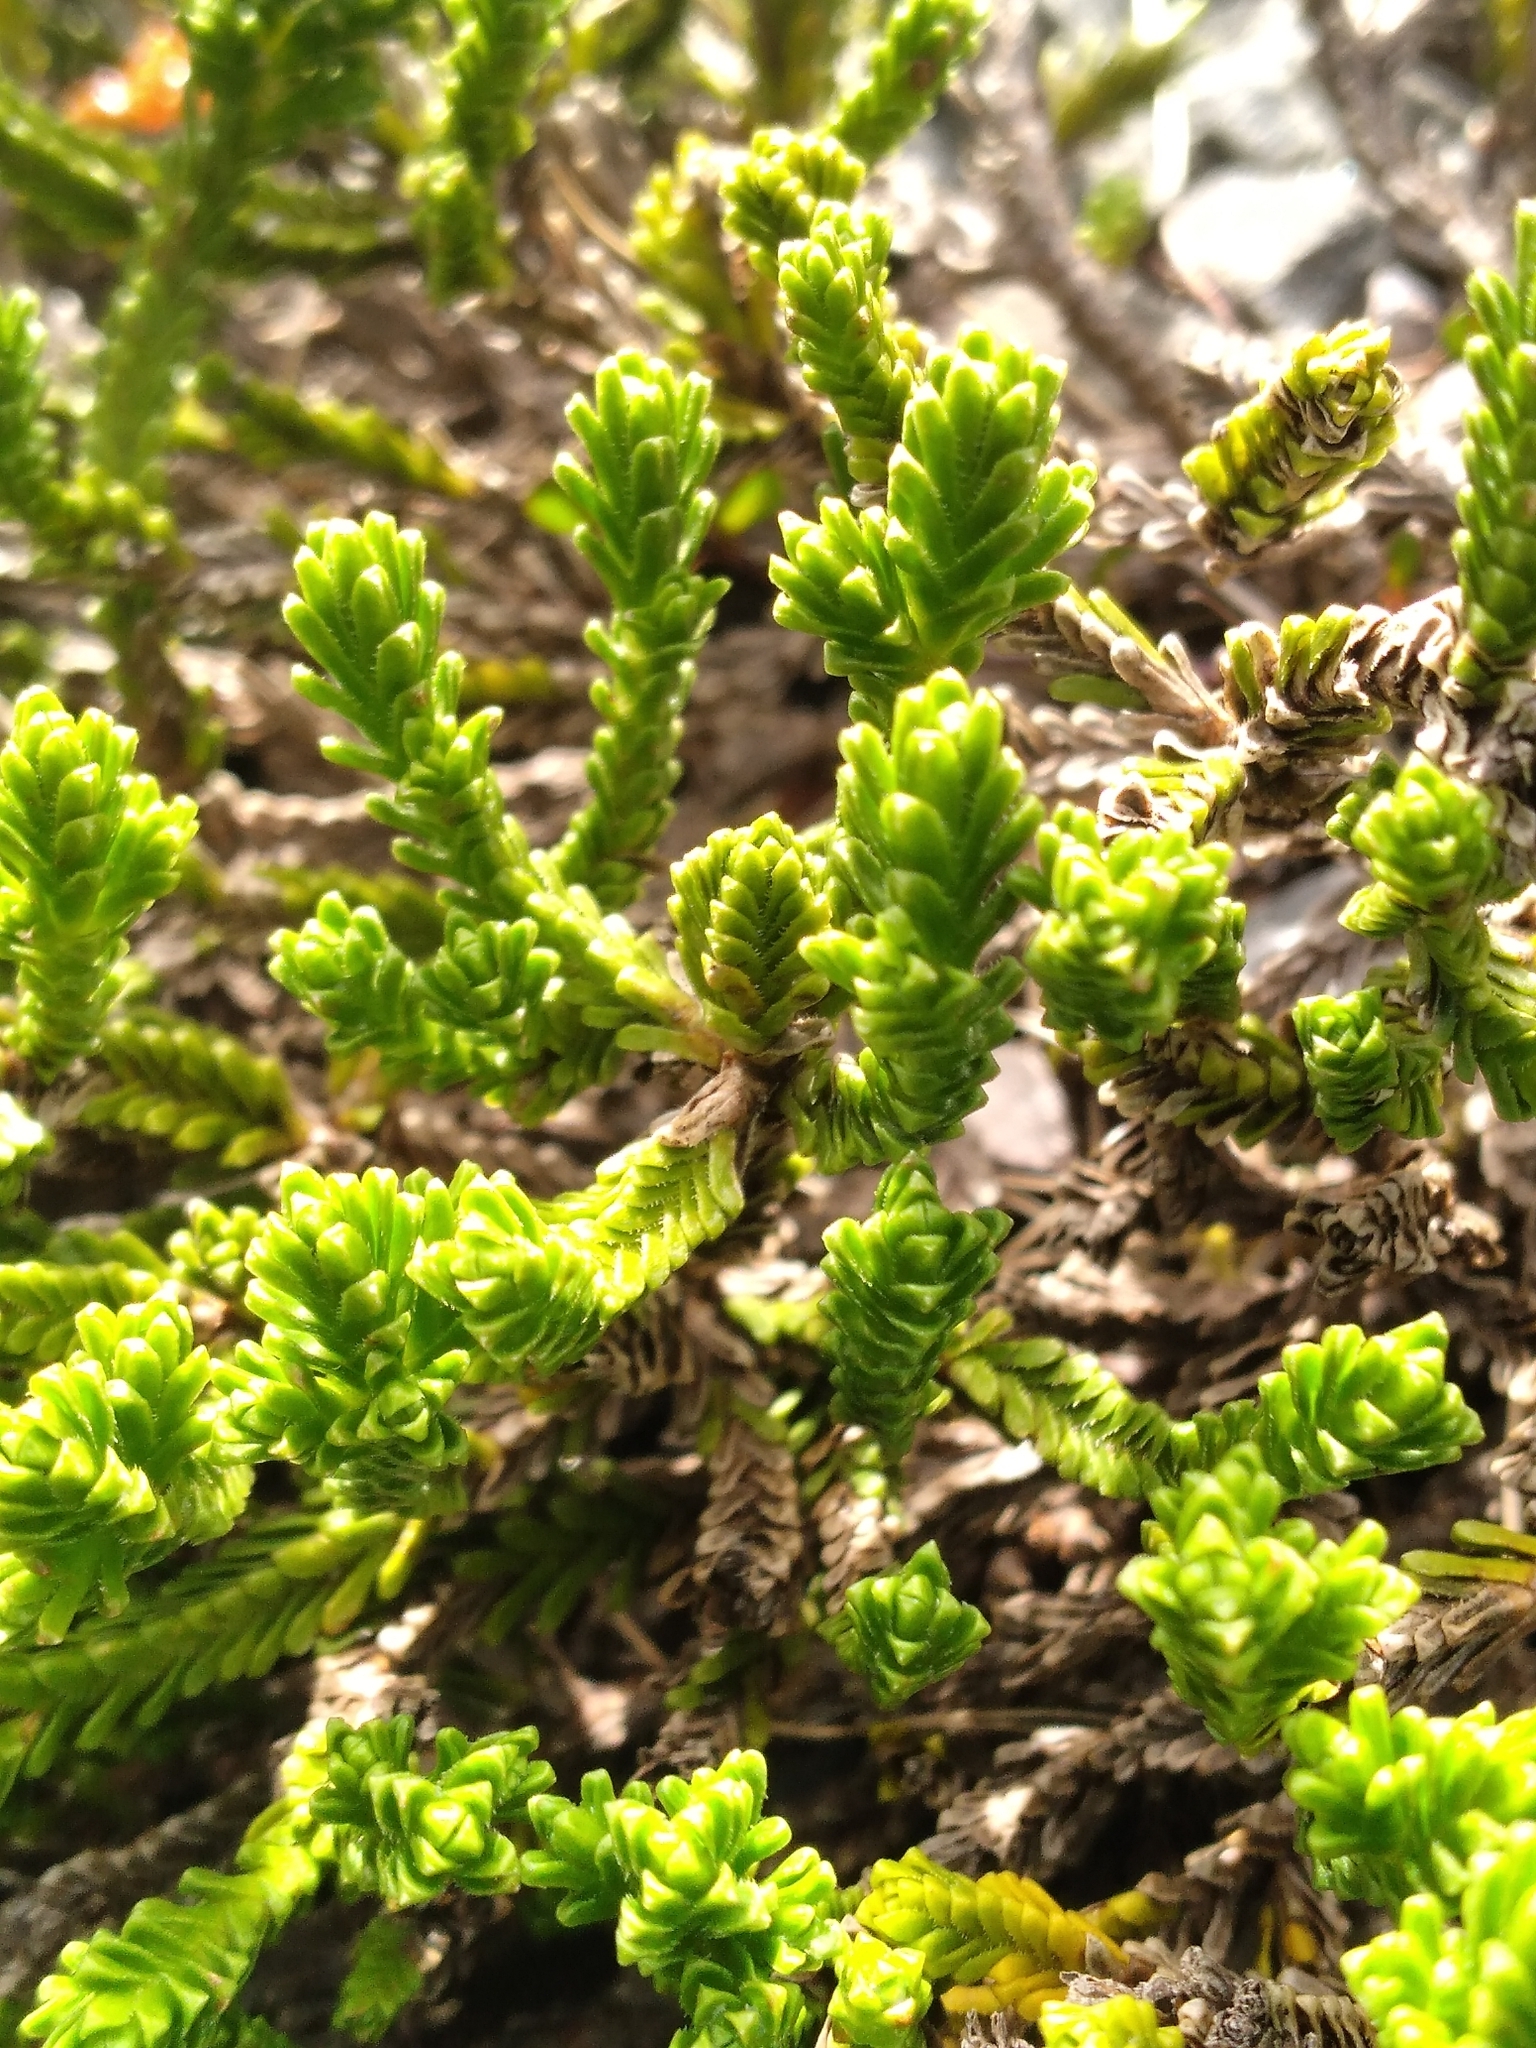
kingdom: Plantae
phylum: Tracheophyta
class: Magnoliopsida
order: Lamiales
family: Plantaginaceae
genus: Veronica
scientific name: Veronica hookeri
